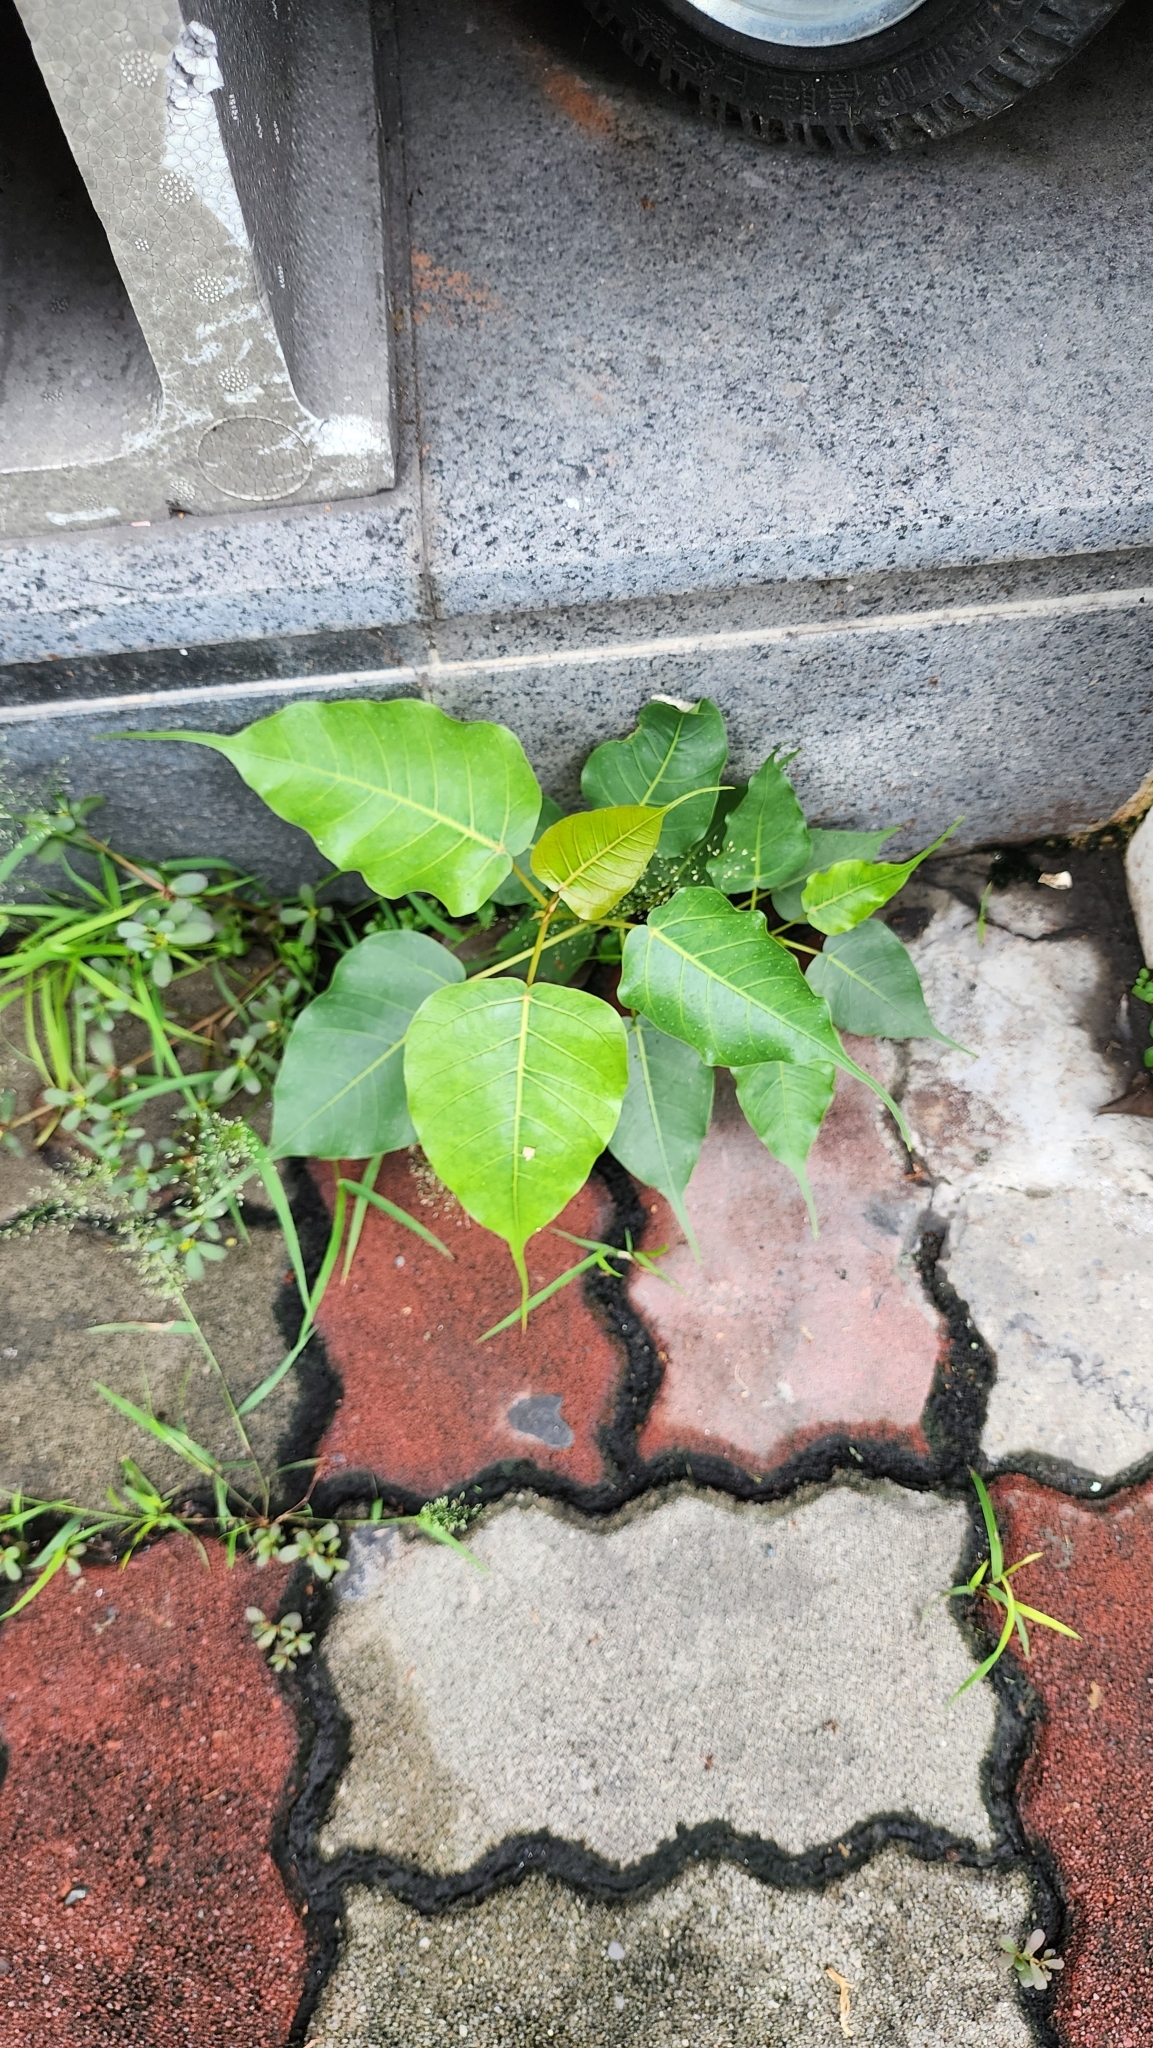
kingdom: Plantae
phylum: Tracheophyta
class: Magnoliopsida
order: Rosales
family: Moraceae
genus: Ficus
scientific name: Ficus religiosa
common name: Bodhi tree
